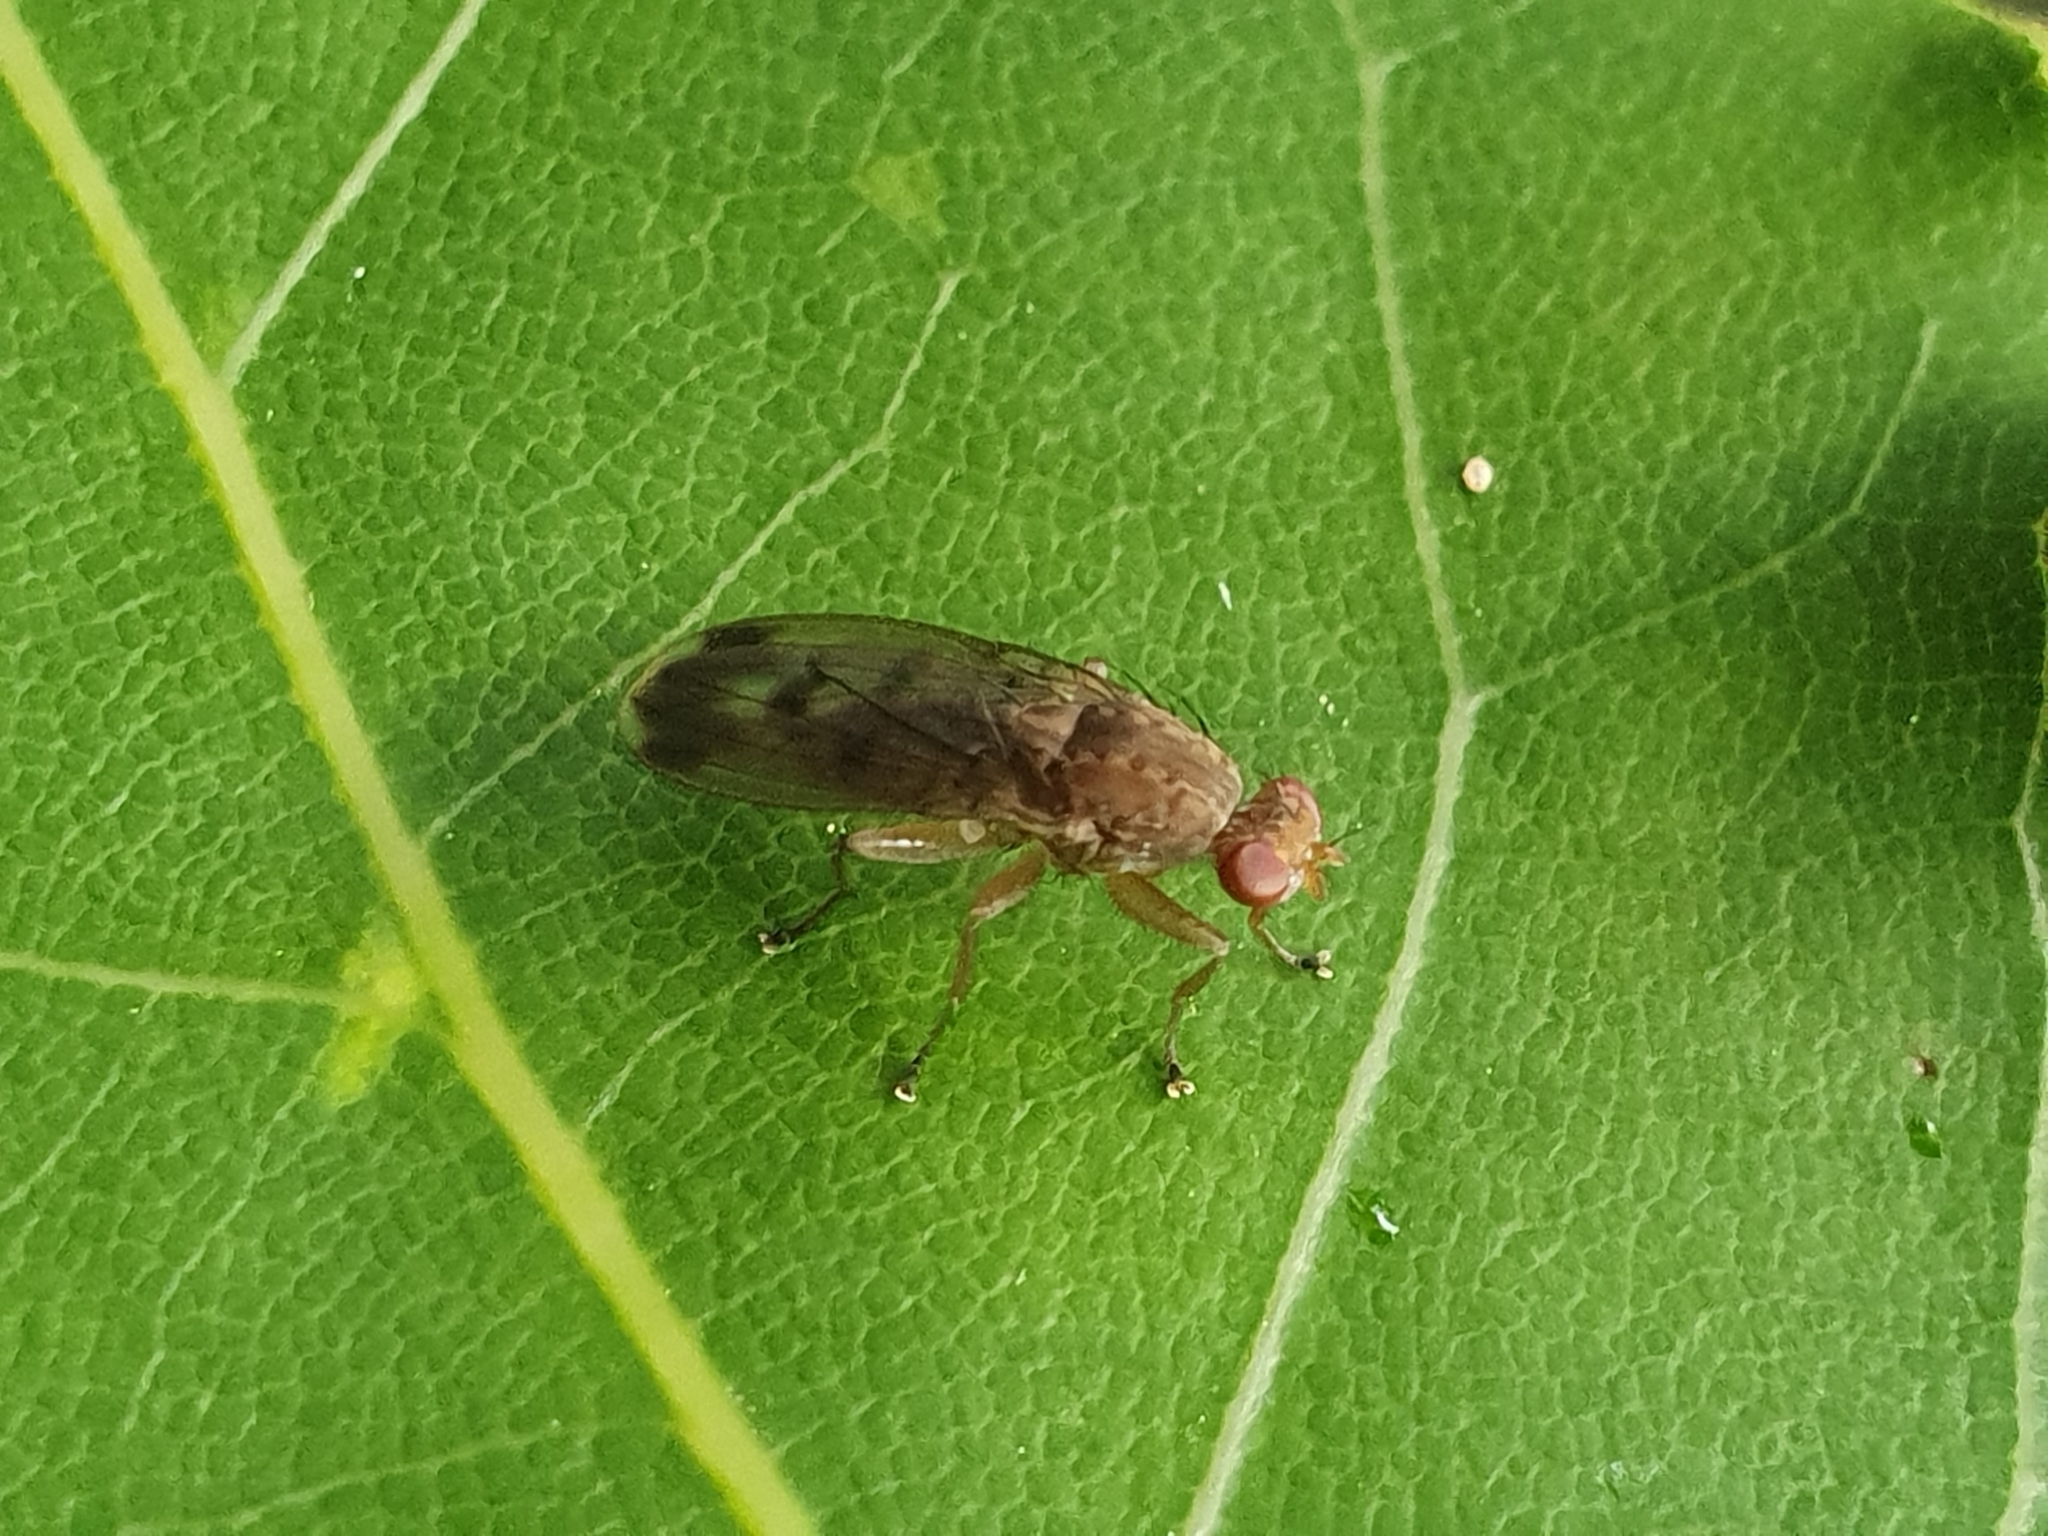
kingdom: Animalia
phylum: Arthropoda
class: Insecta
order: Diptera
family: Heleomyzidae
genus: Suillia
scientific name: Suillia variegata
